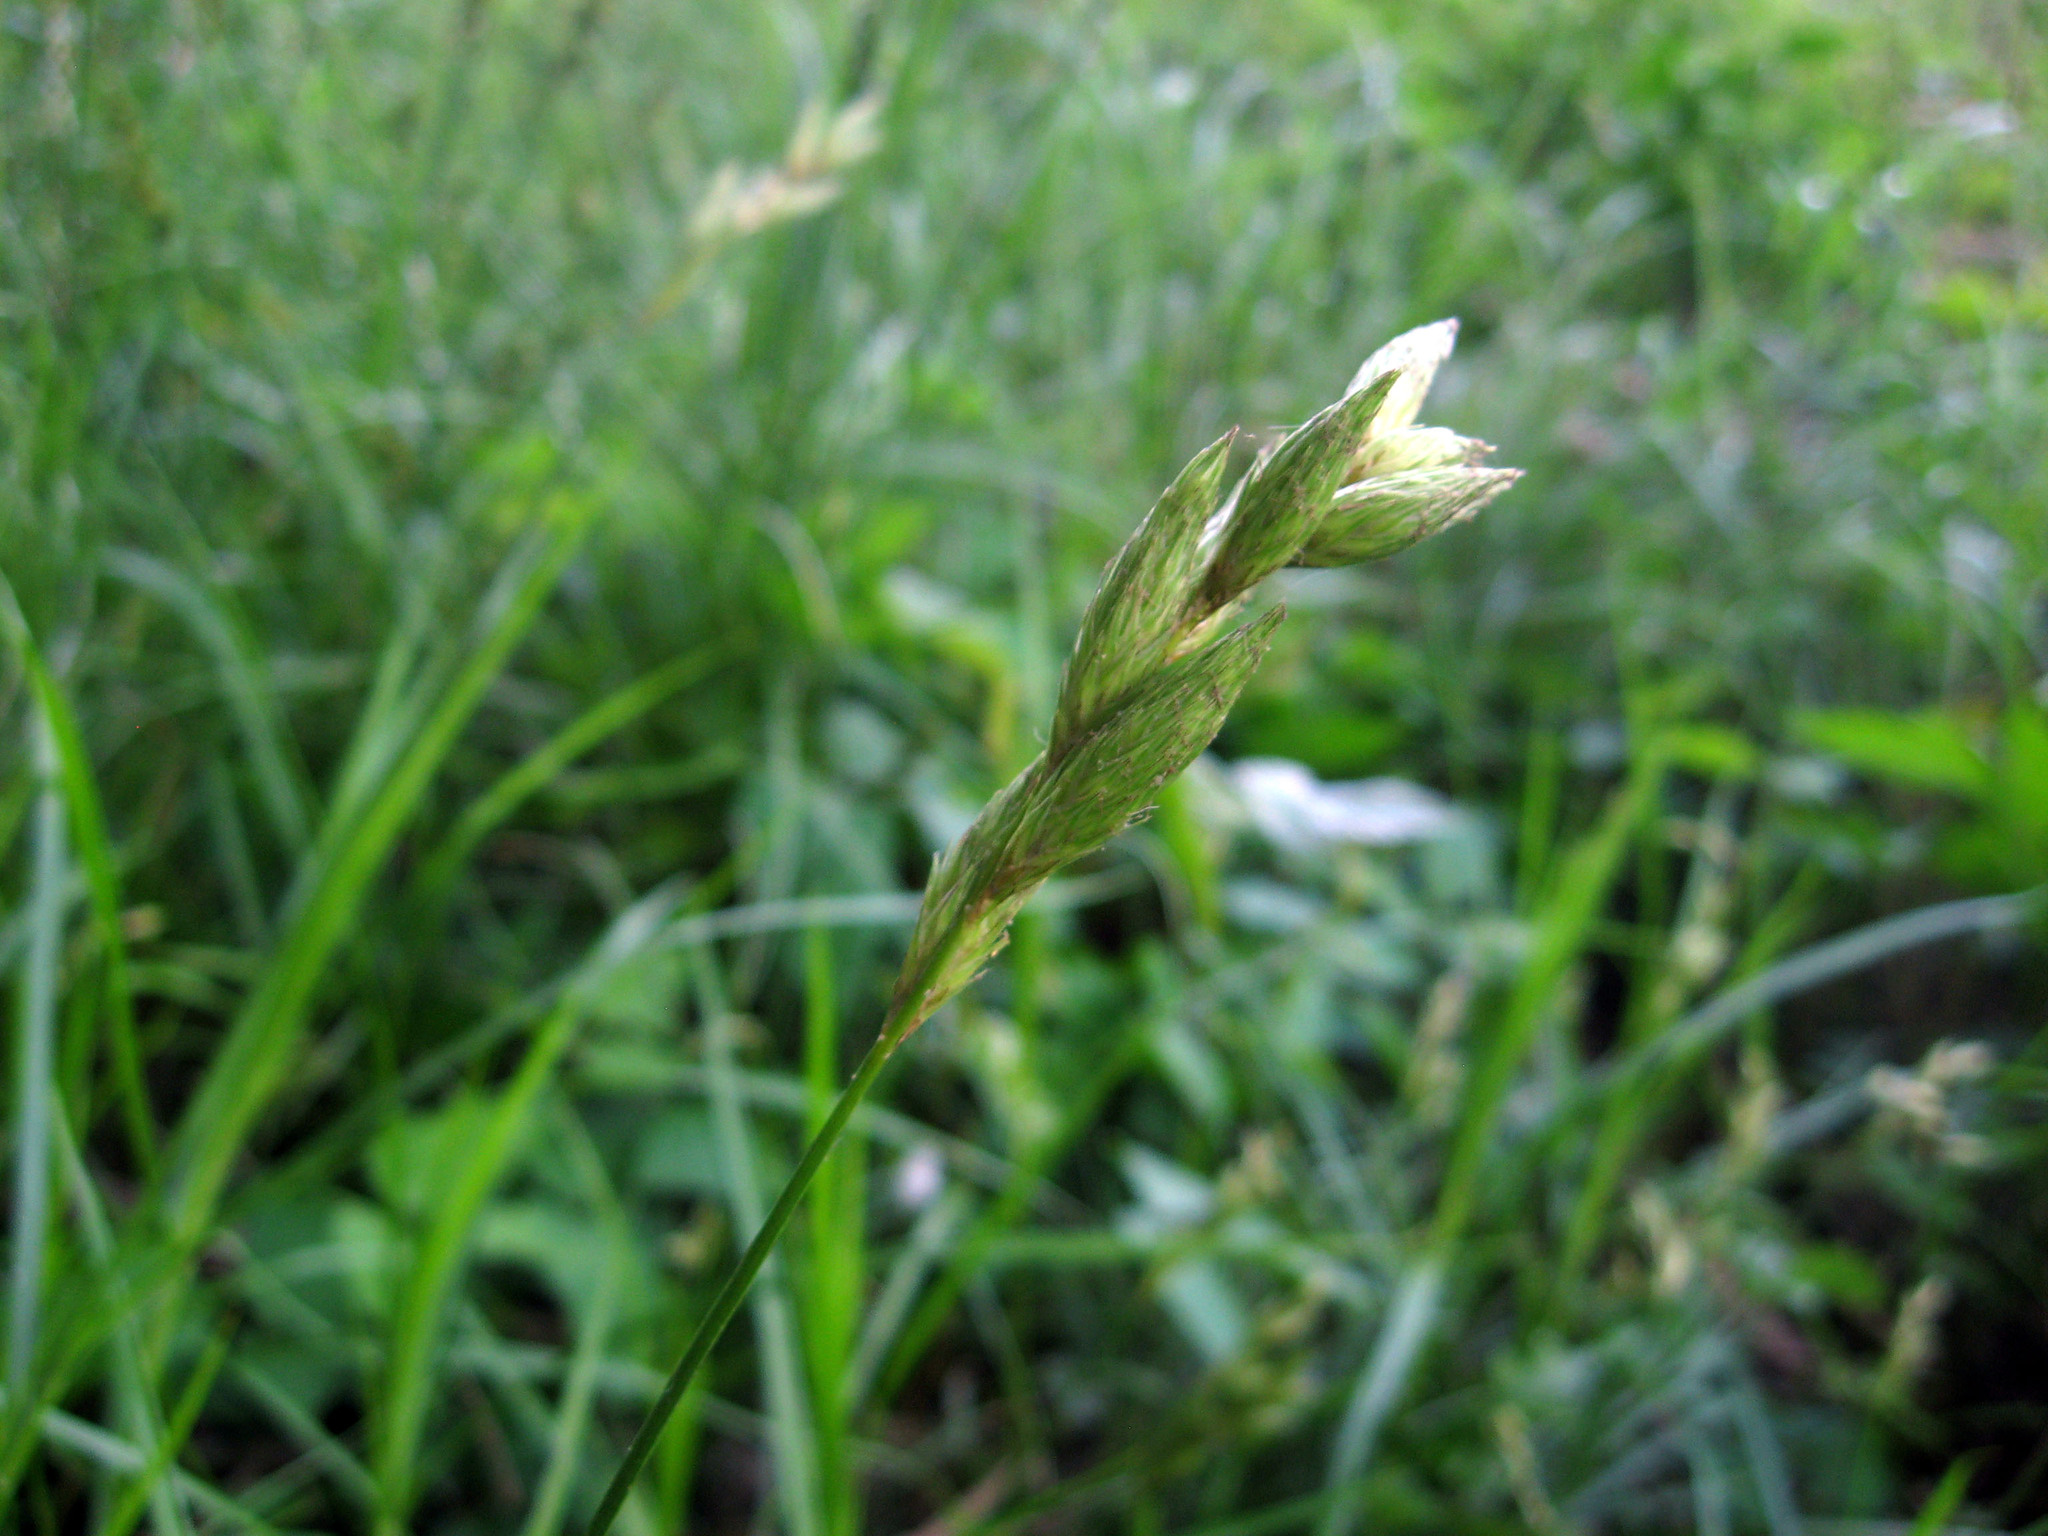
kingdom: Plantae
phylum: Tracheophyta
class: Liliopsida
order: Poales
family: Cyperaceae
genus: Carex
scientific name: Carex muskingumensis
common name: Muskingum sedge
